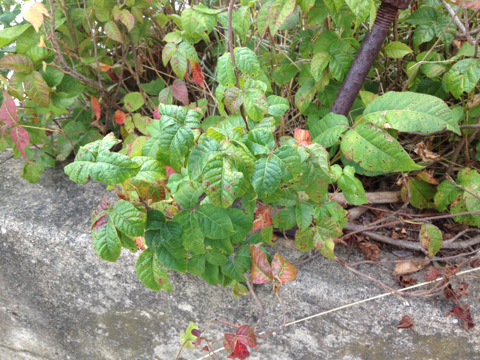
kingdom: Plantae
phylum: Tracheophyta
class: Magnoliopsida
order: Sapindales
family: Anacardiaceae
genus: Toxicodendron
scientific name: Toxicodendron radicans
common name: Poison ivy
